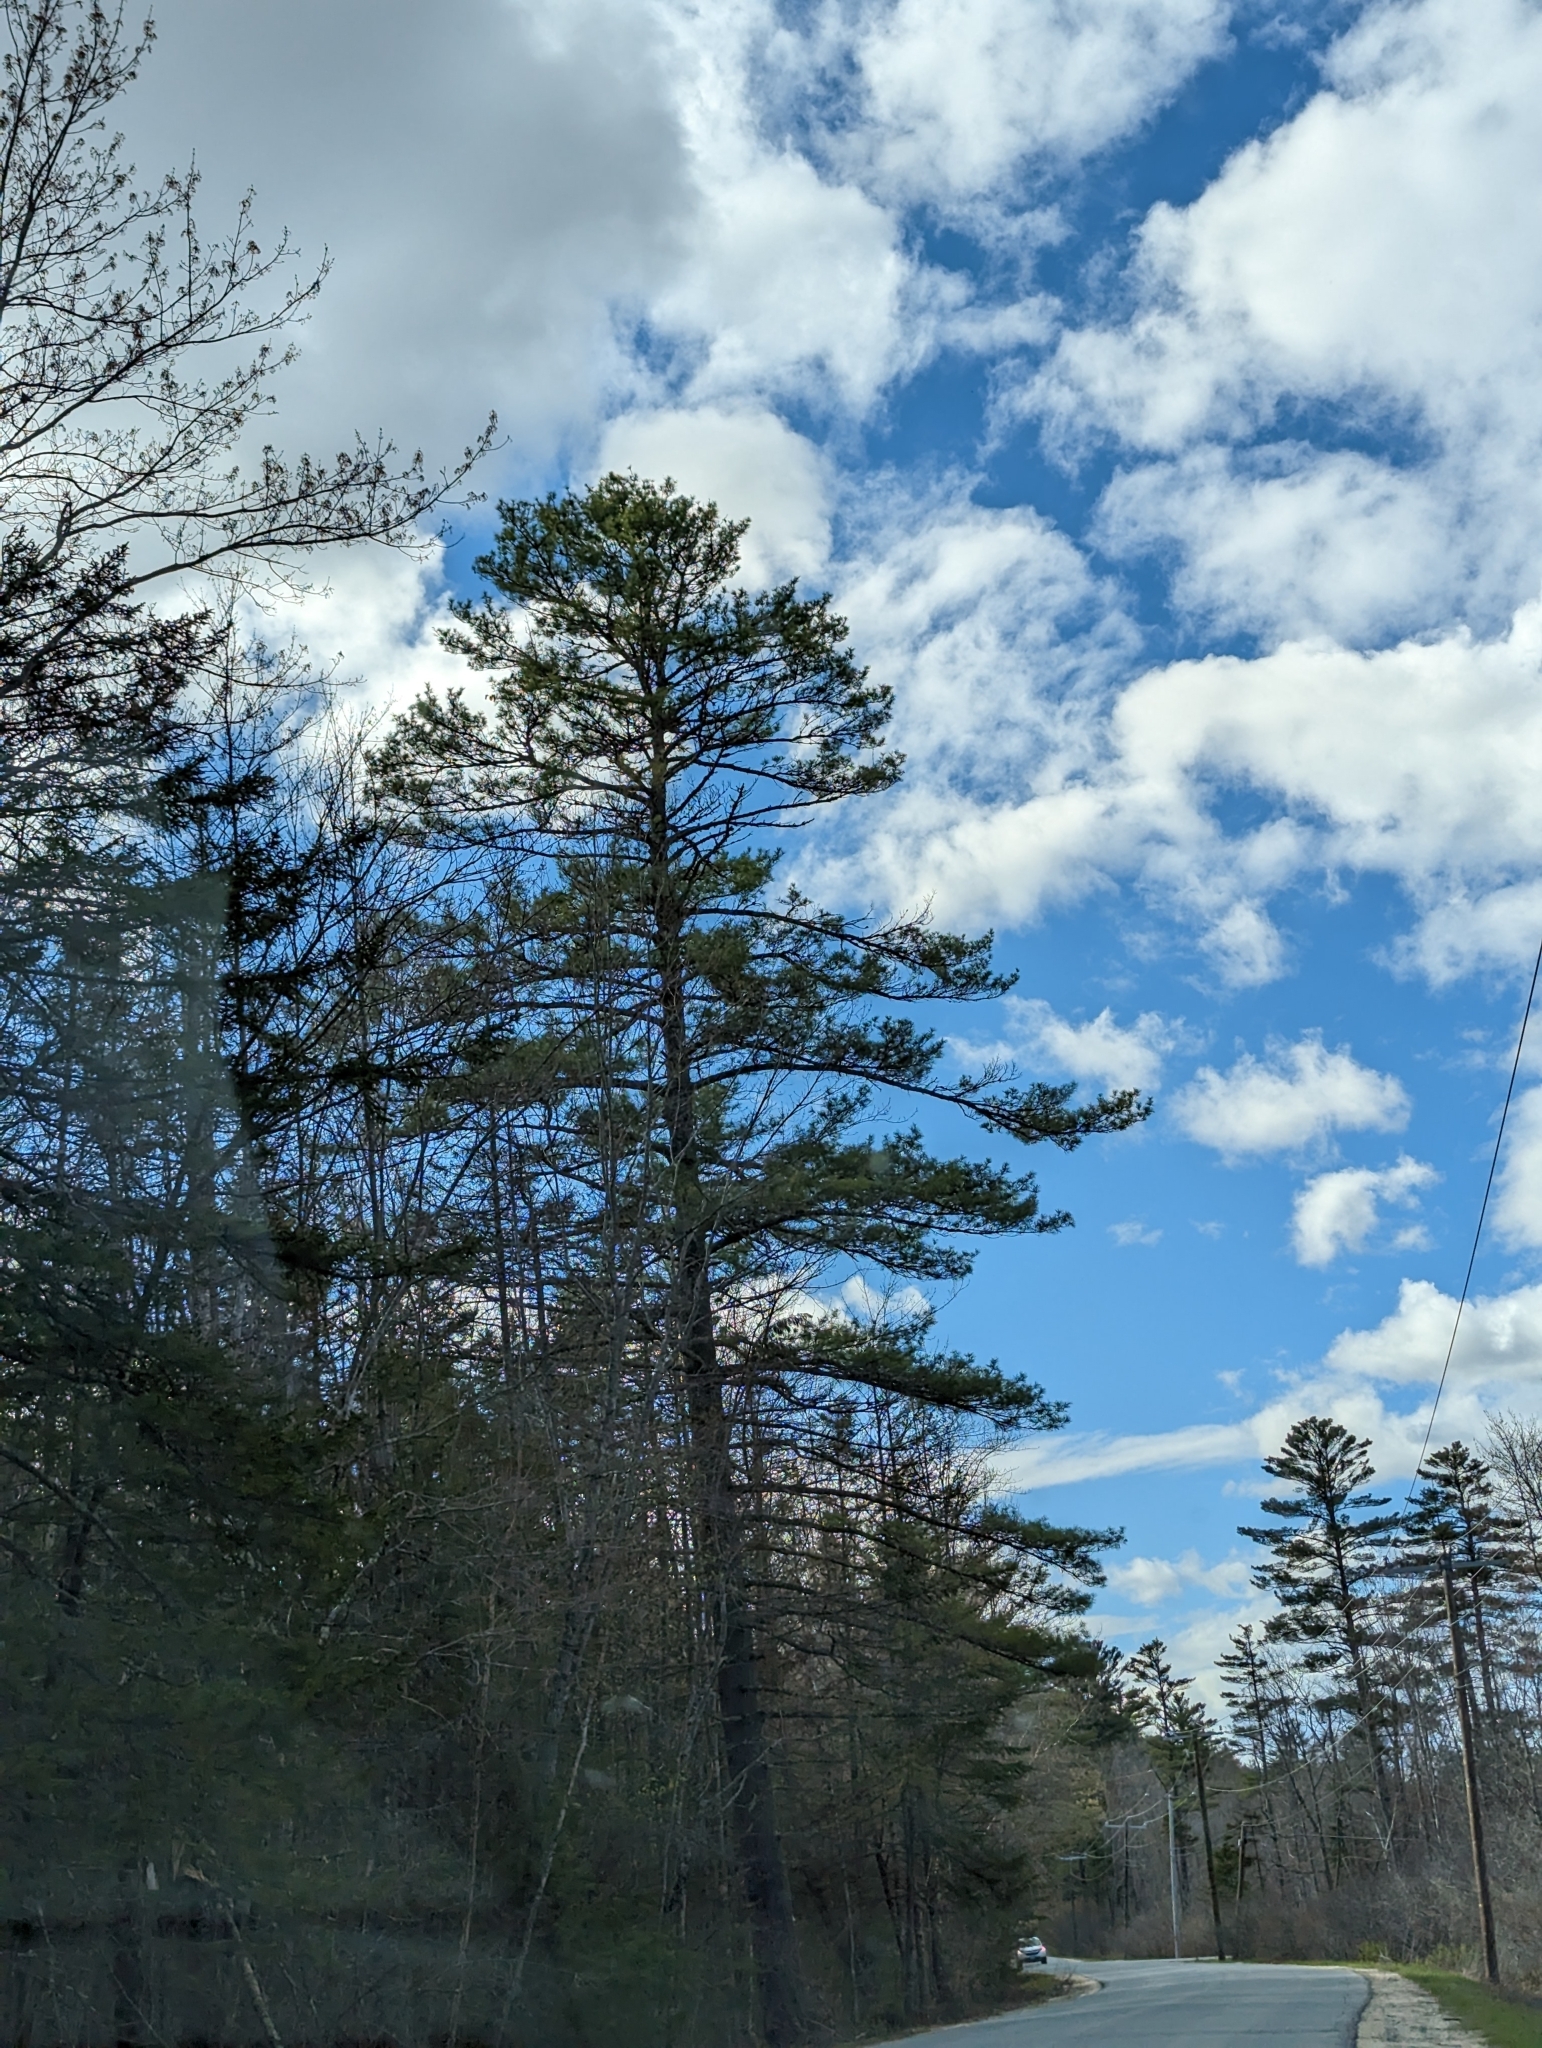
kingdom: Plantae
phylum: Tracheophyta
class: Pinopsida
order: Pinales
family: Pinaceae
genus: Pinus
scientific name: Pinus strobus
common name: Weymouth pine
